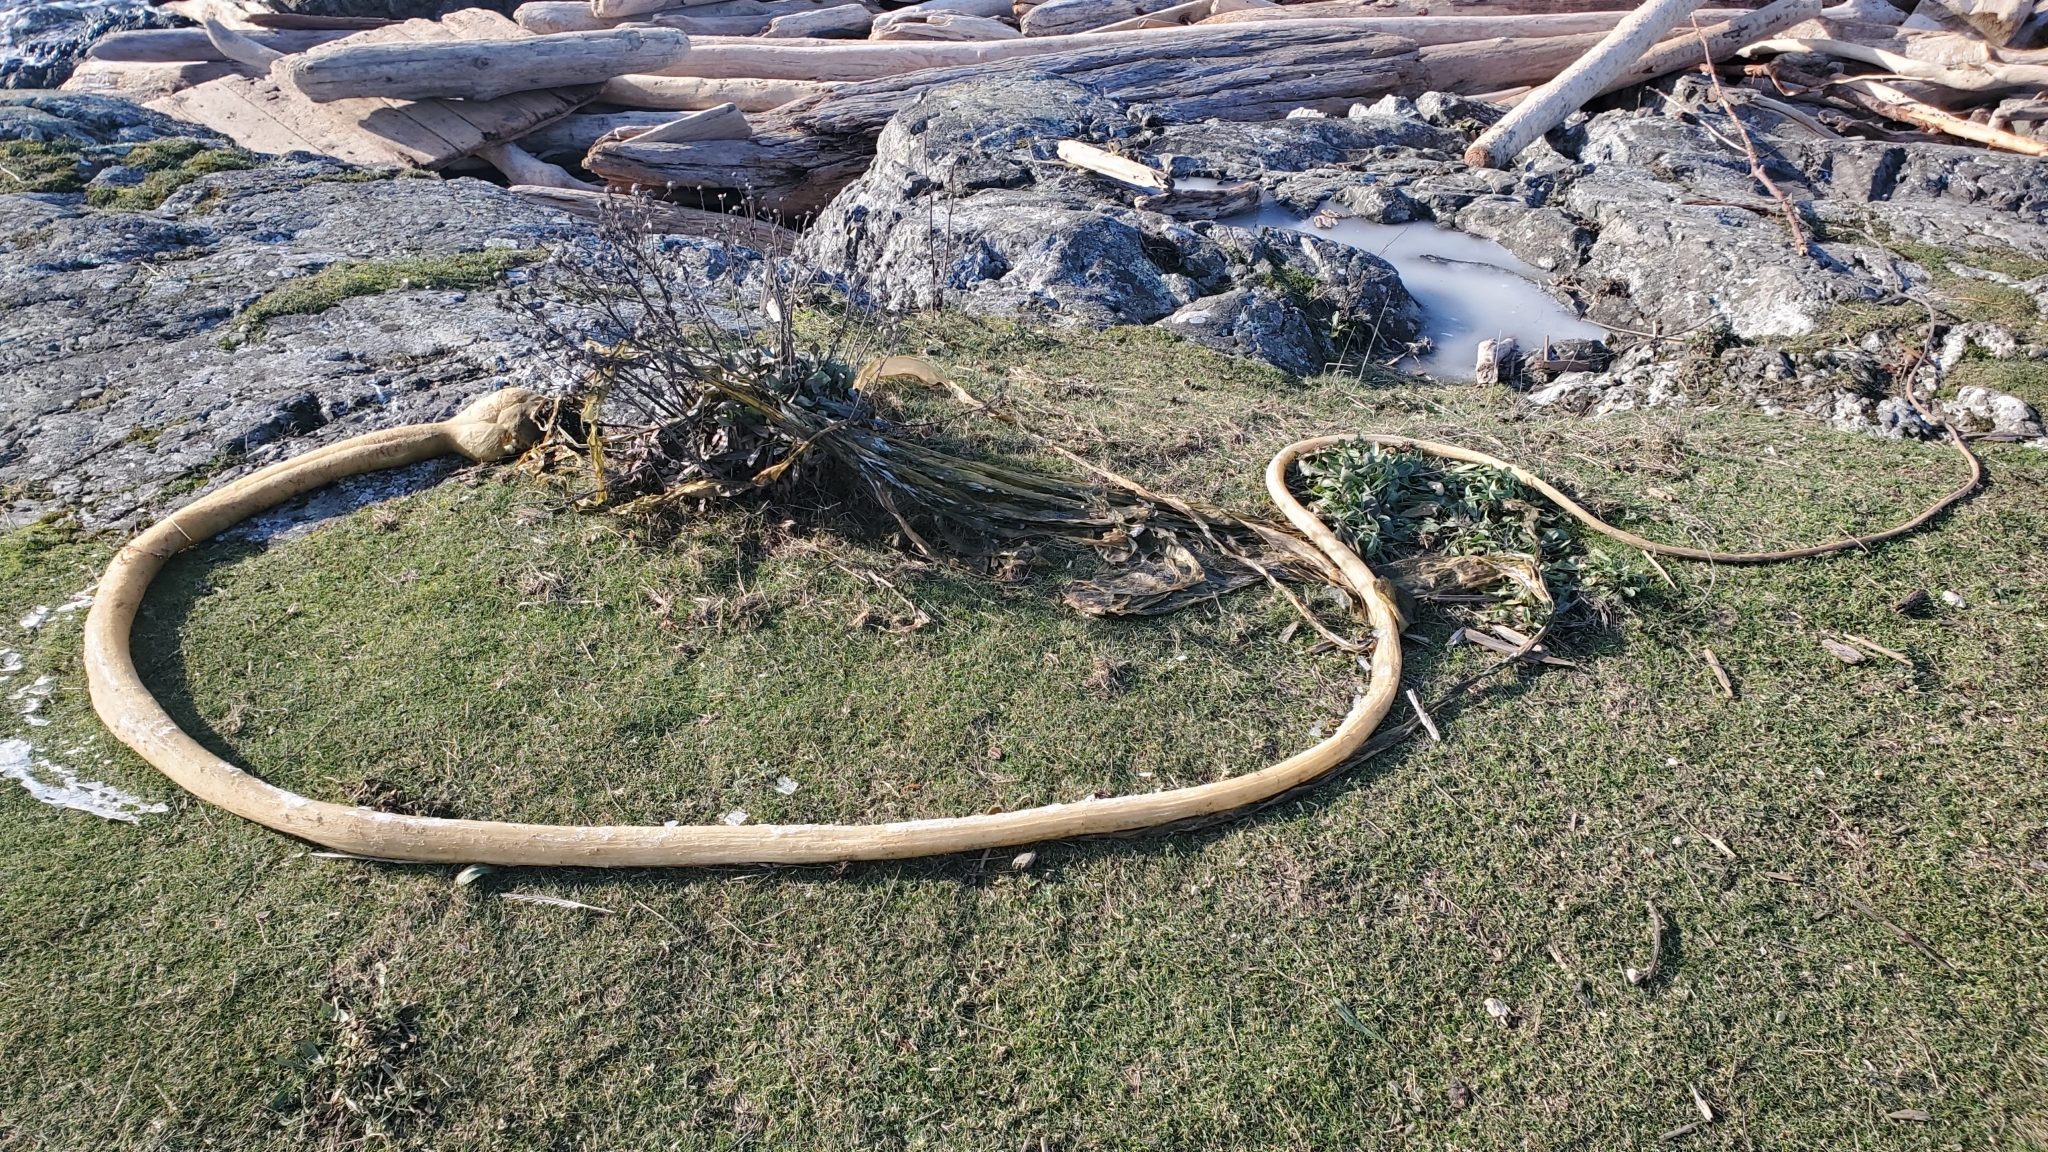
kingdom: Chromista
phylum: Ochrophyta
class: Phaeophyceae
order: Laminariales
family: Laminariaceae
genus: Nereocystis
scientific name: Nereocystis luetkeana
